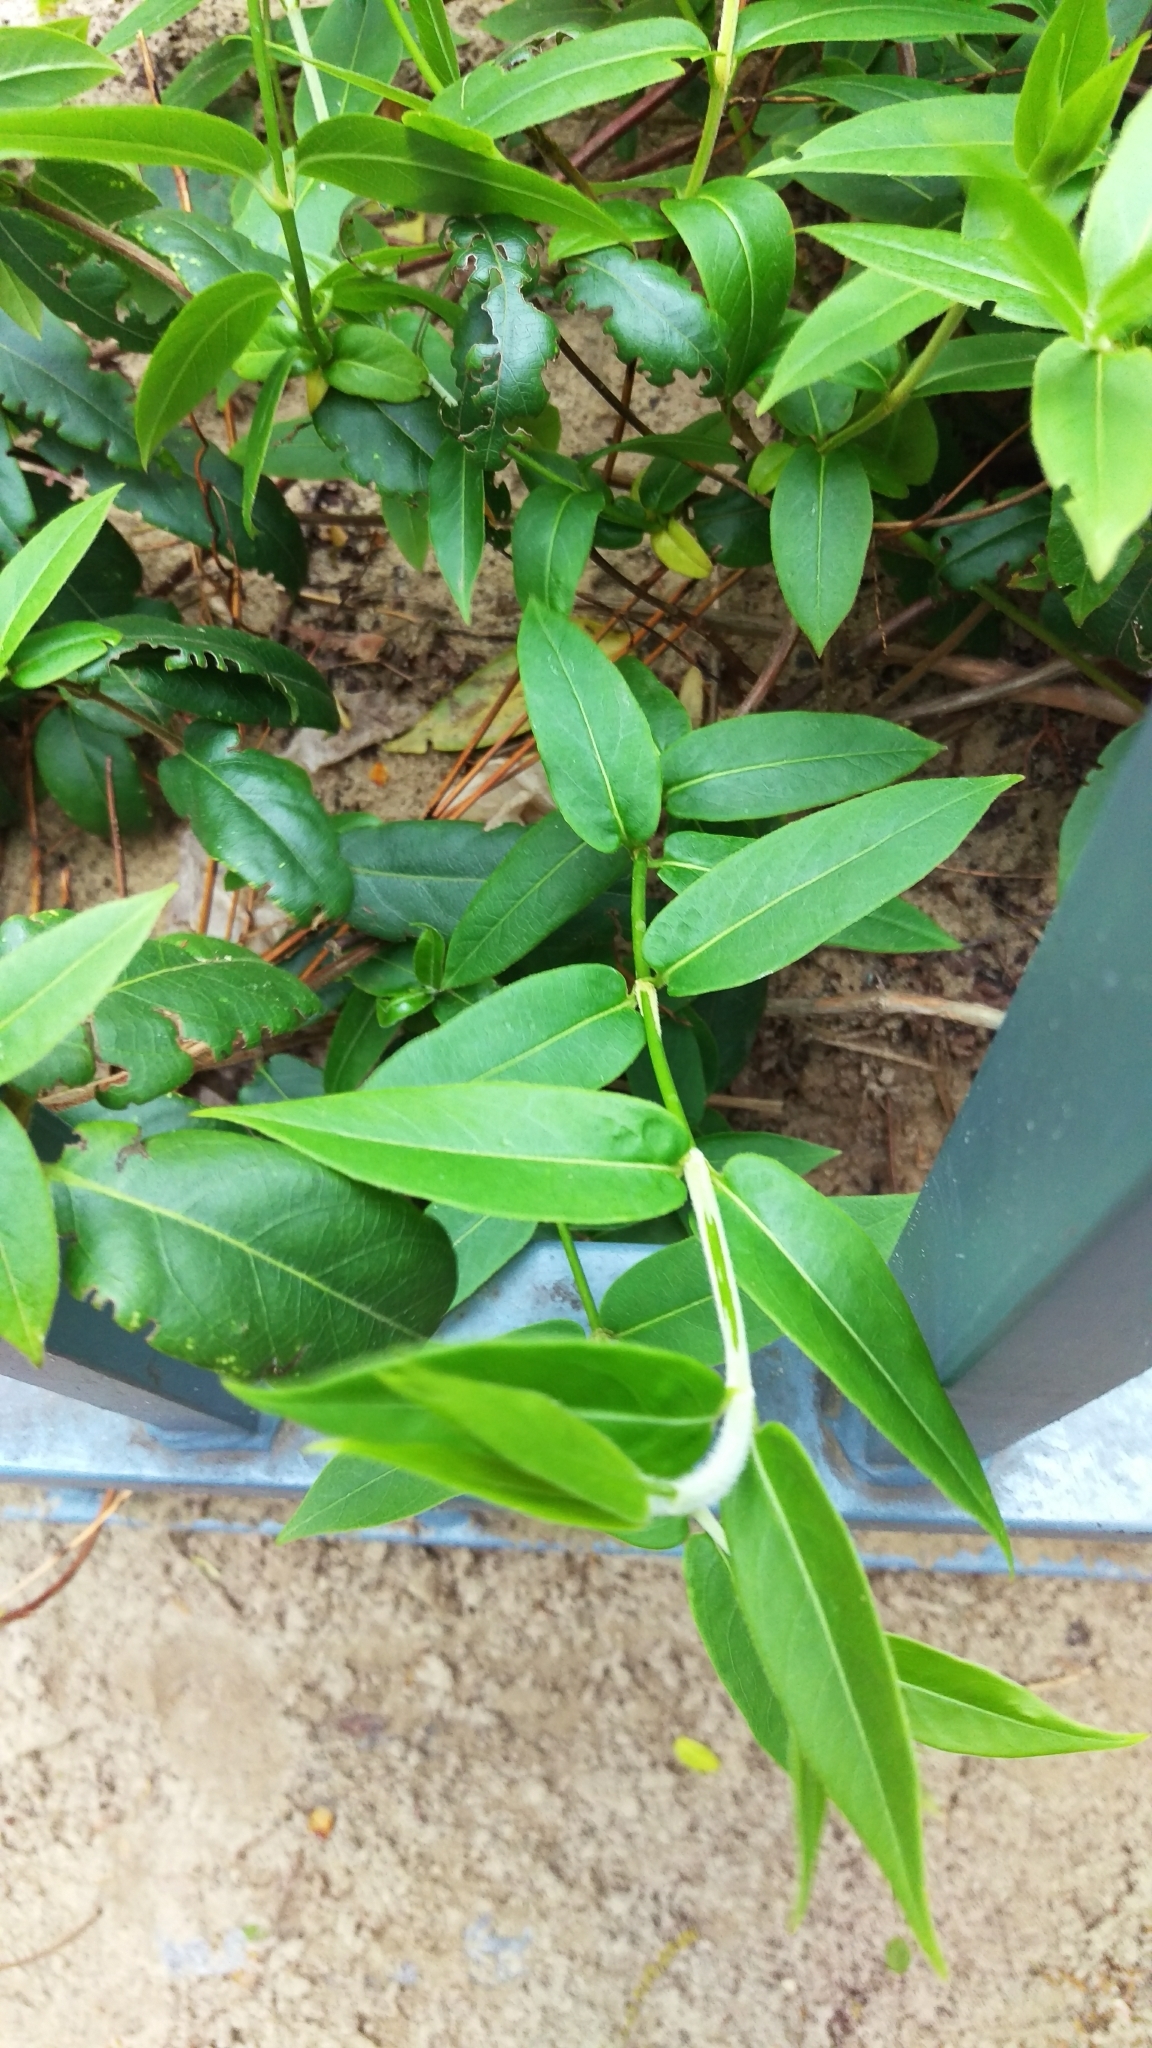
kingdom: Plantae
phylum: Tracheophyta
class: Magnoliopsida
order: Dipsacales
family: Caprifoliaceae
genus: Lonicera
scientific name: Lonicera acuminata
